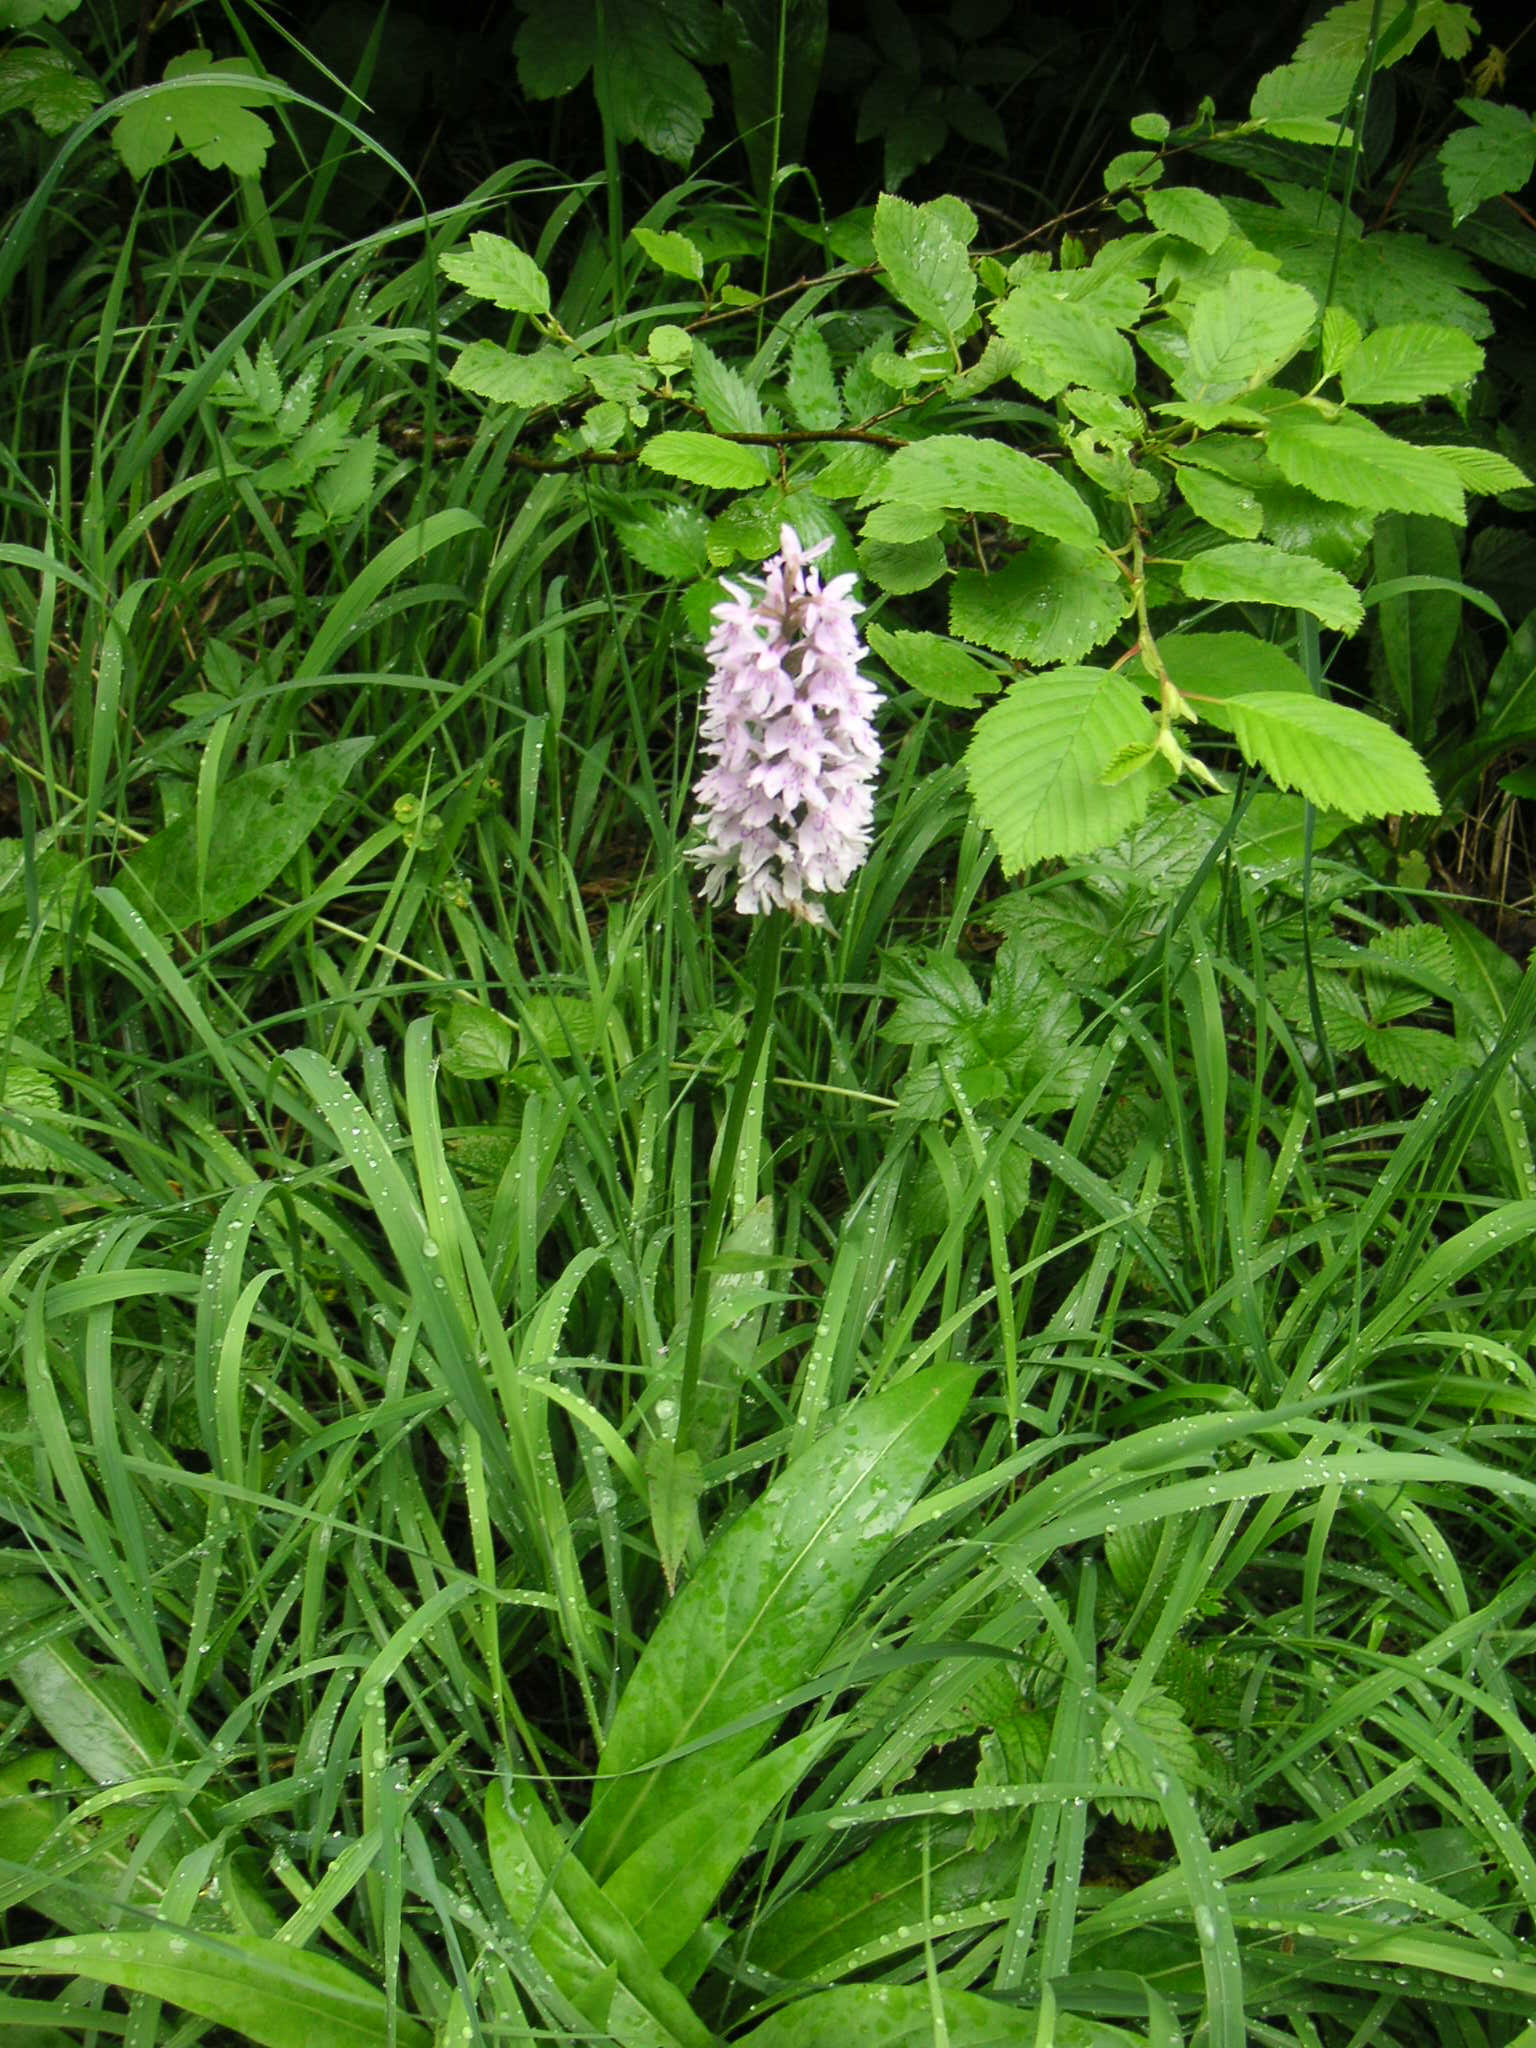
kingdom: Plantae
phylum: Tracheophyta
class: Liliopsida
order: Asparagales
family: Orchidaceae
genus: Dactylorhiza
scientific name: Dactylorhiza maculata
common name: Heath spotted-orchid
